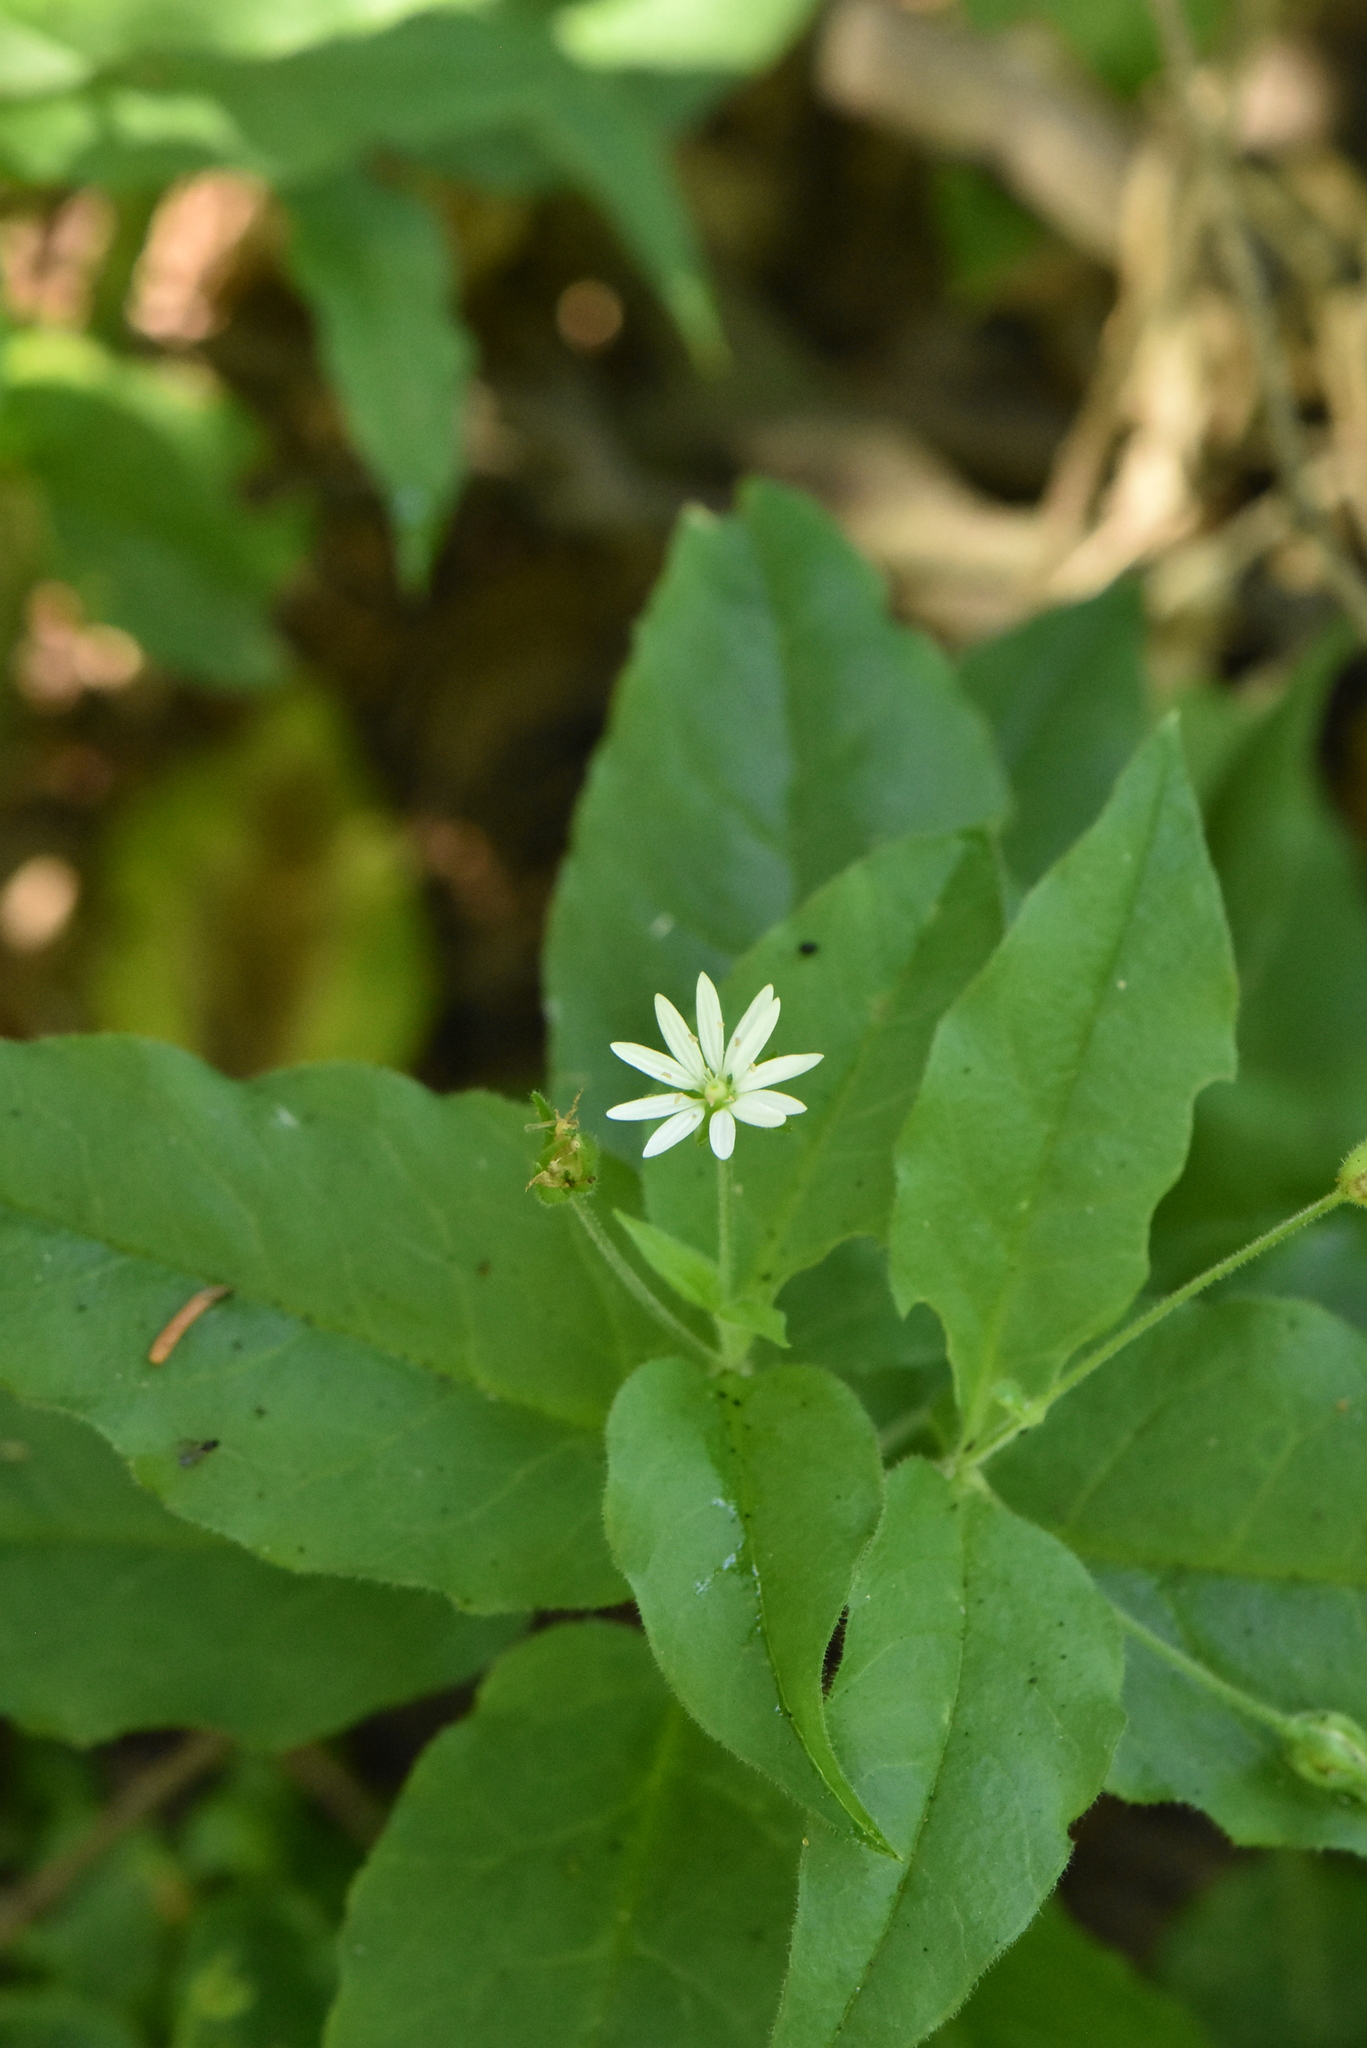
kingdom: Plantae
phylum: Tracheophyta
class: Magnoliopsida
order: Caryophyllales
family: Caryophyllaceae
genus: Stellaria
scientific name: Stellaria bungeana
